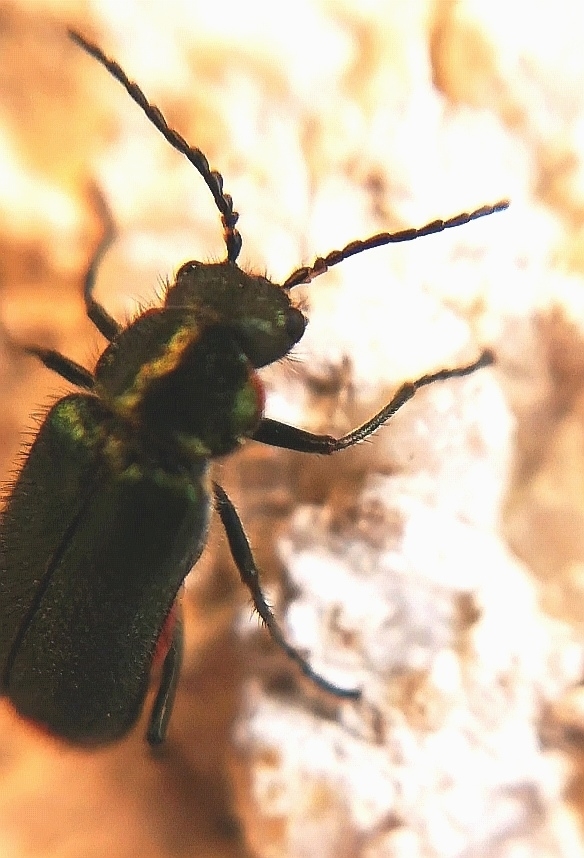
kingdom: Animalia
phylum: Arthropoda
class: Insecta
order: Coleoptera
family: Melyridae
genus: Malachius
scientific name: Malachius bipustulatus
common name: Malachite beetle
